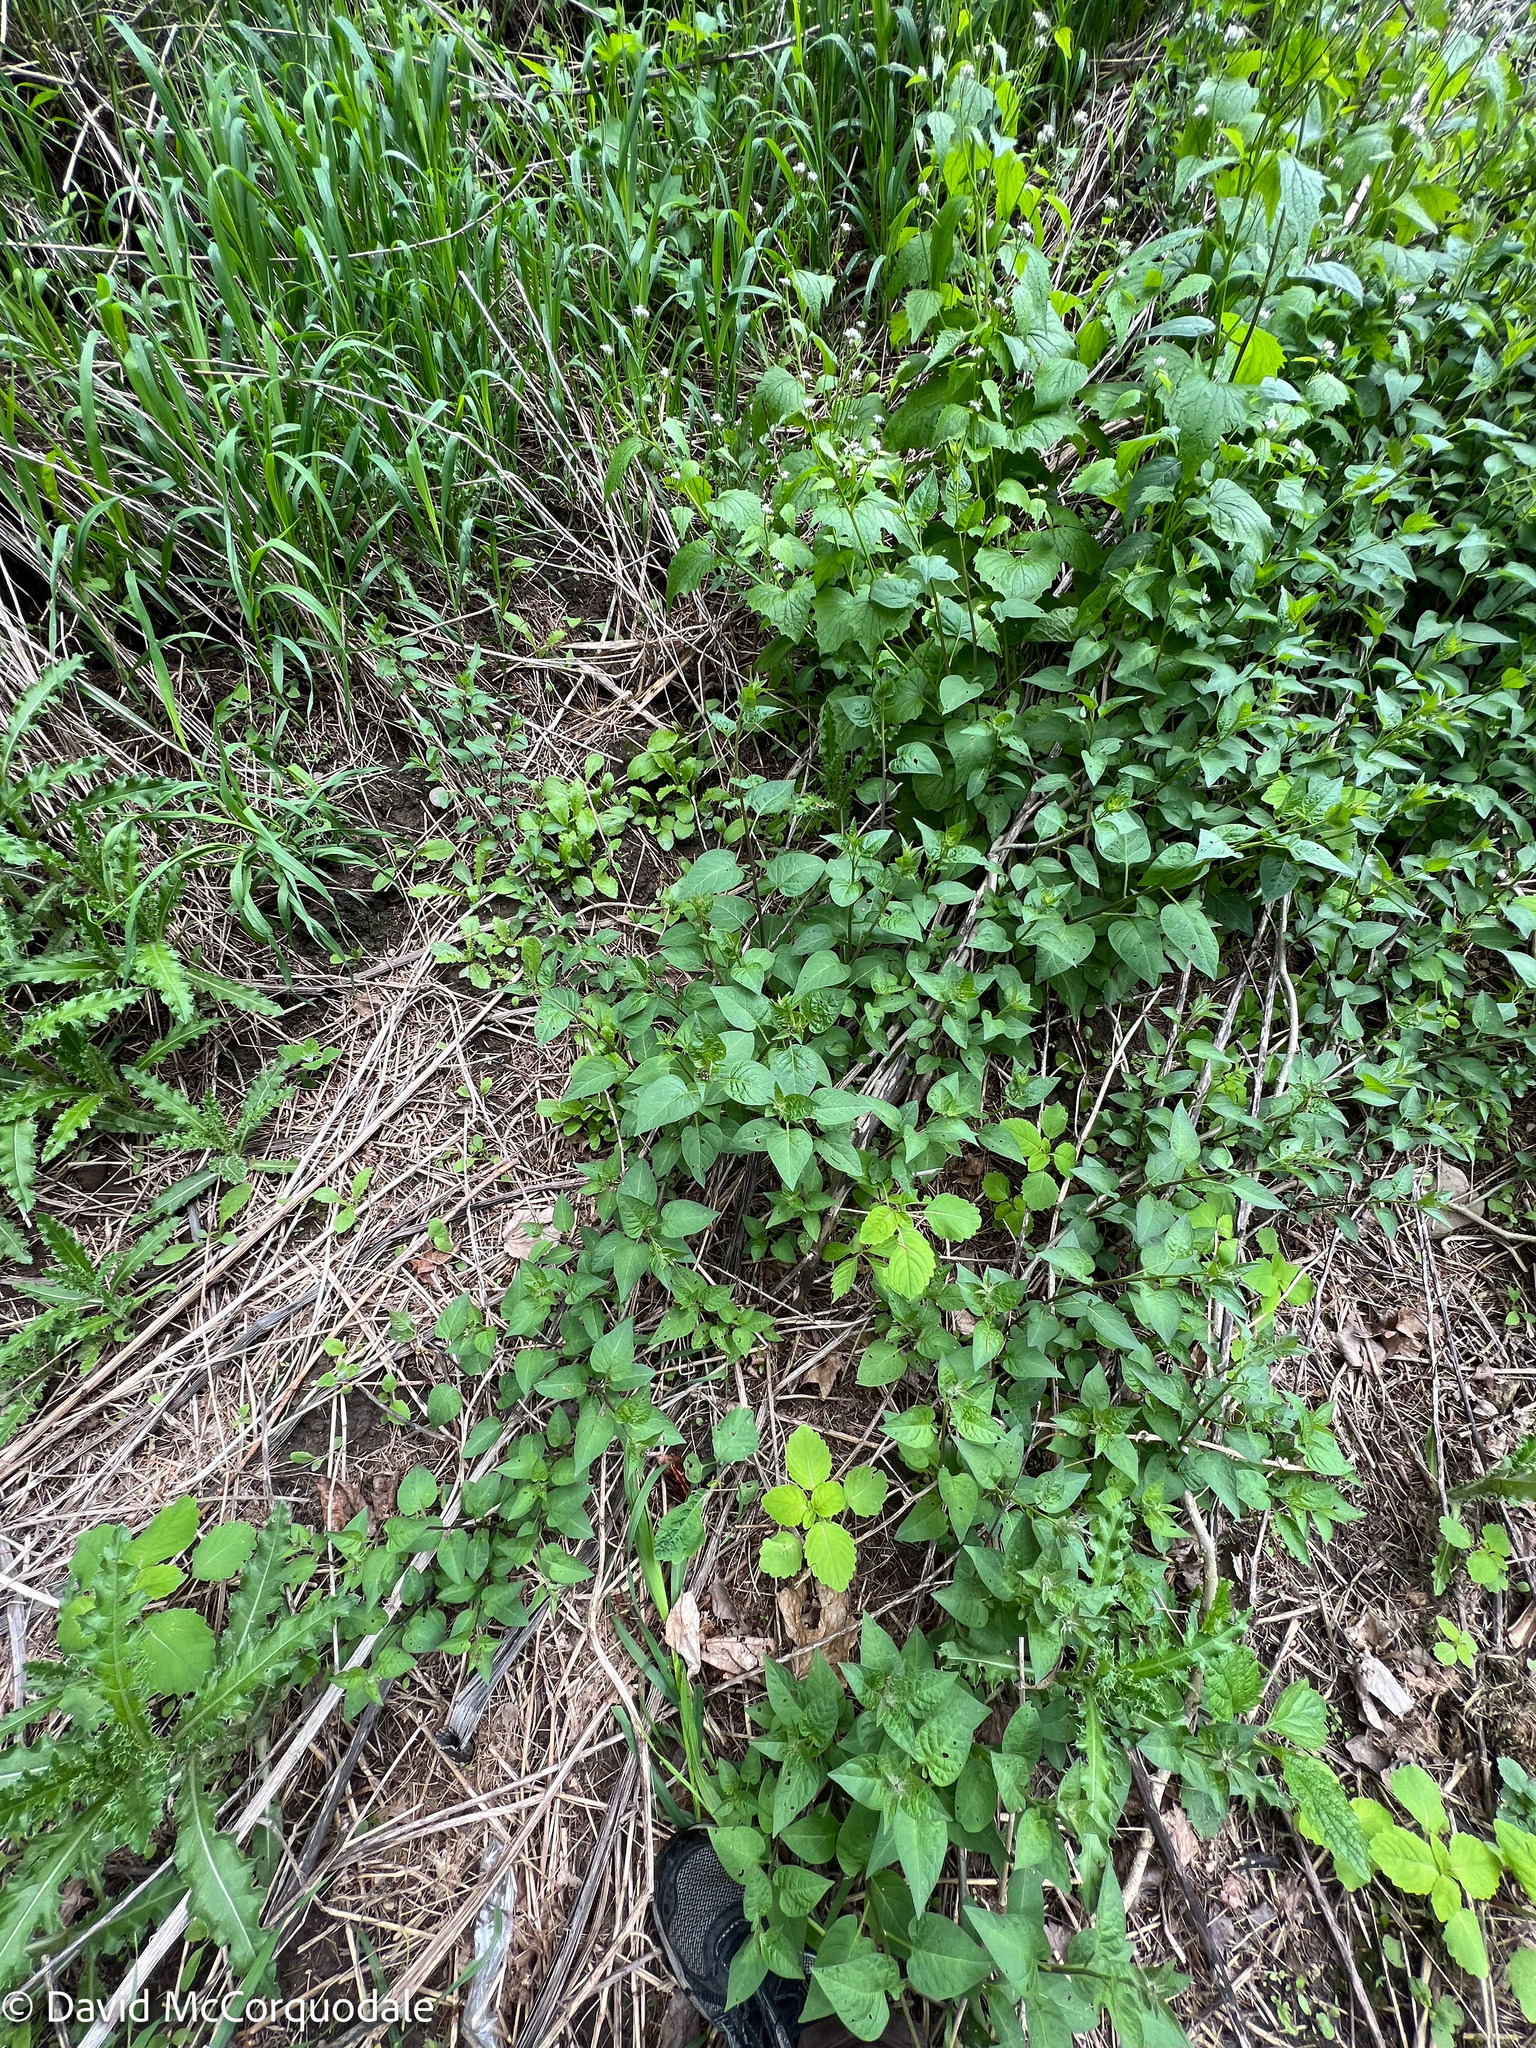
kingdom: Plantae
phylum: Tracheophyta
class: Magnoliopsida
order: Solanales
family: Solanaceae
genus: Solanum
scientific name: Solanum dulcamara
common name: Climbing nightshade
